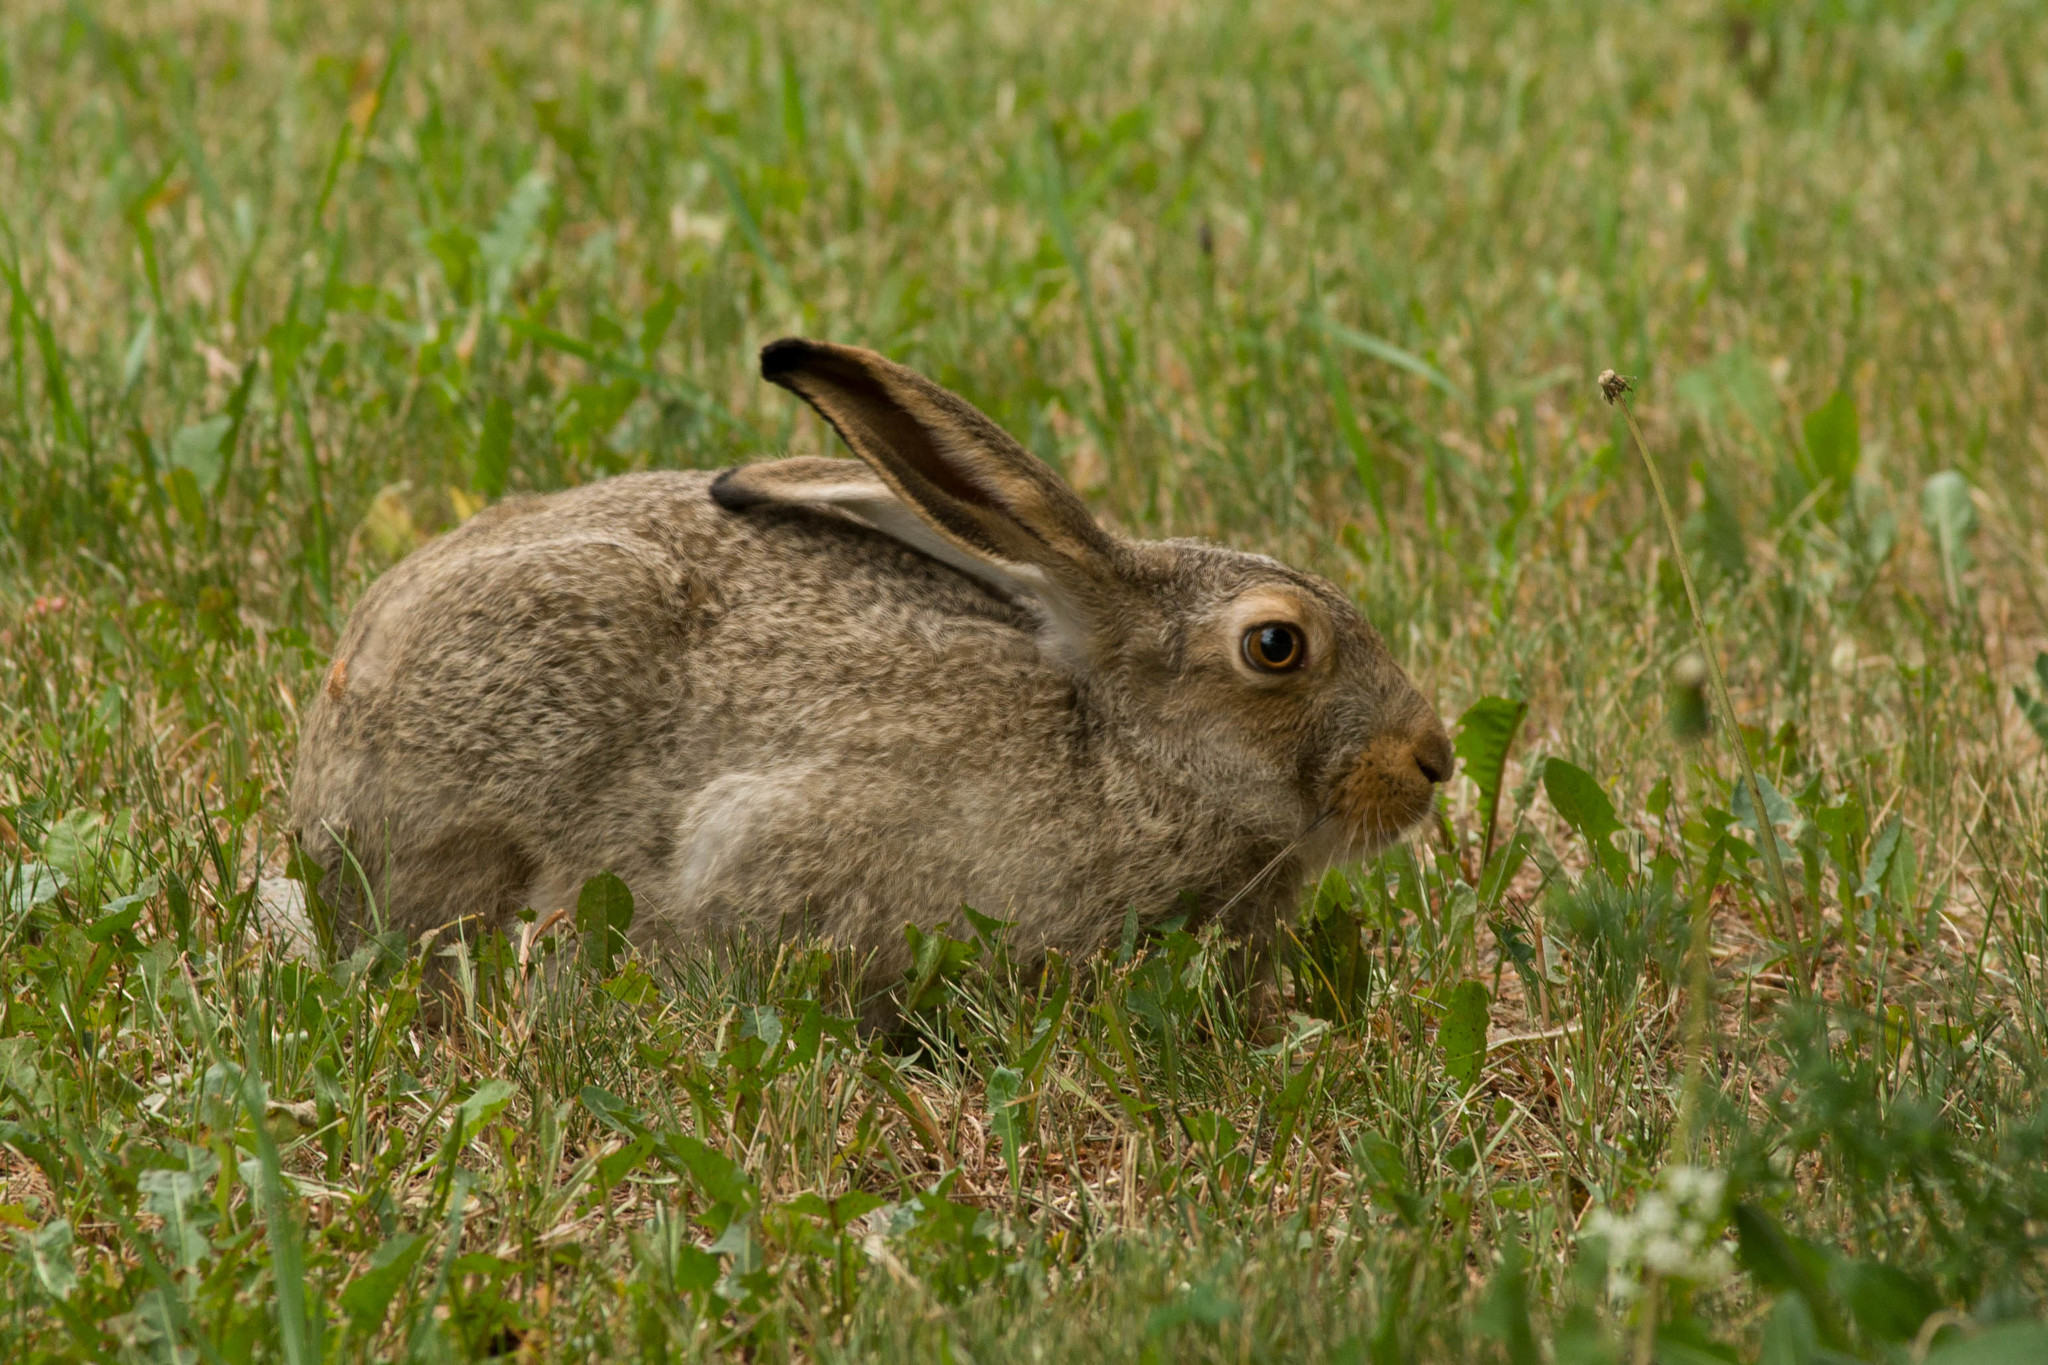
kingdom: Animalia
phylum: Chordata
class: Mammalia
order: Lagomorpha
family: Leporidae
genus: Lepus
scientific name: Lepus townsendii
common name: White-tailed jackrabbit
